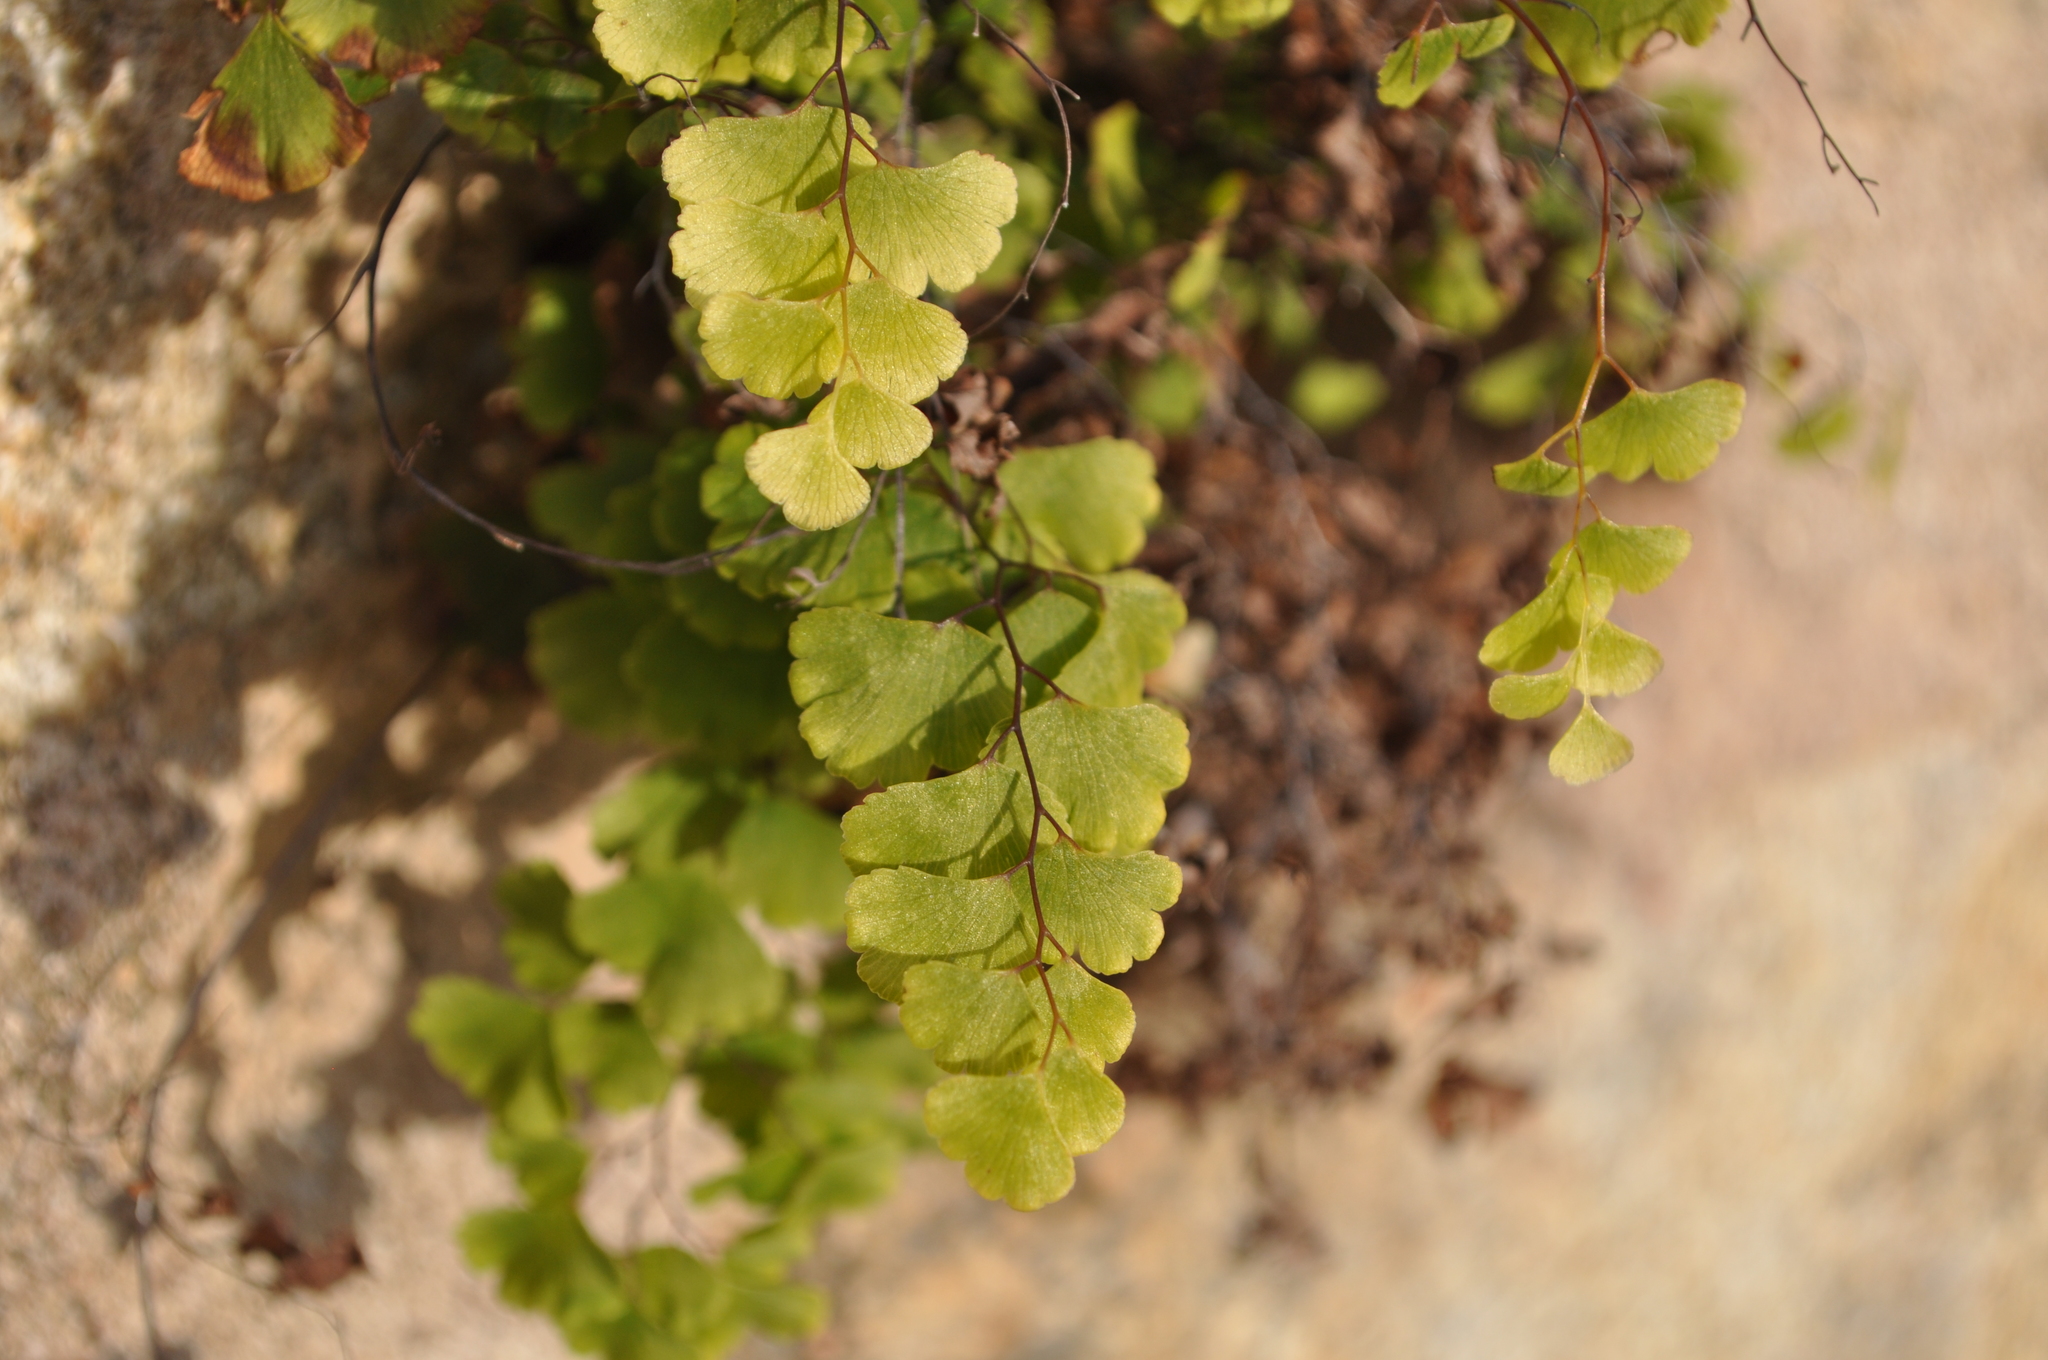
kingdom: Plantae
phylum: Tracheophyta
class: Polypodiopsida
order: Polypodiales
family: Pteridaceae
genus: Adiantum
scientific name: Adiantum capillus-veneris
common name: Maidenhair fern
